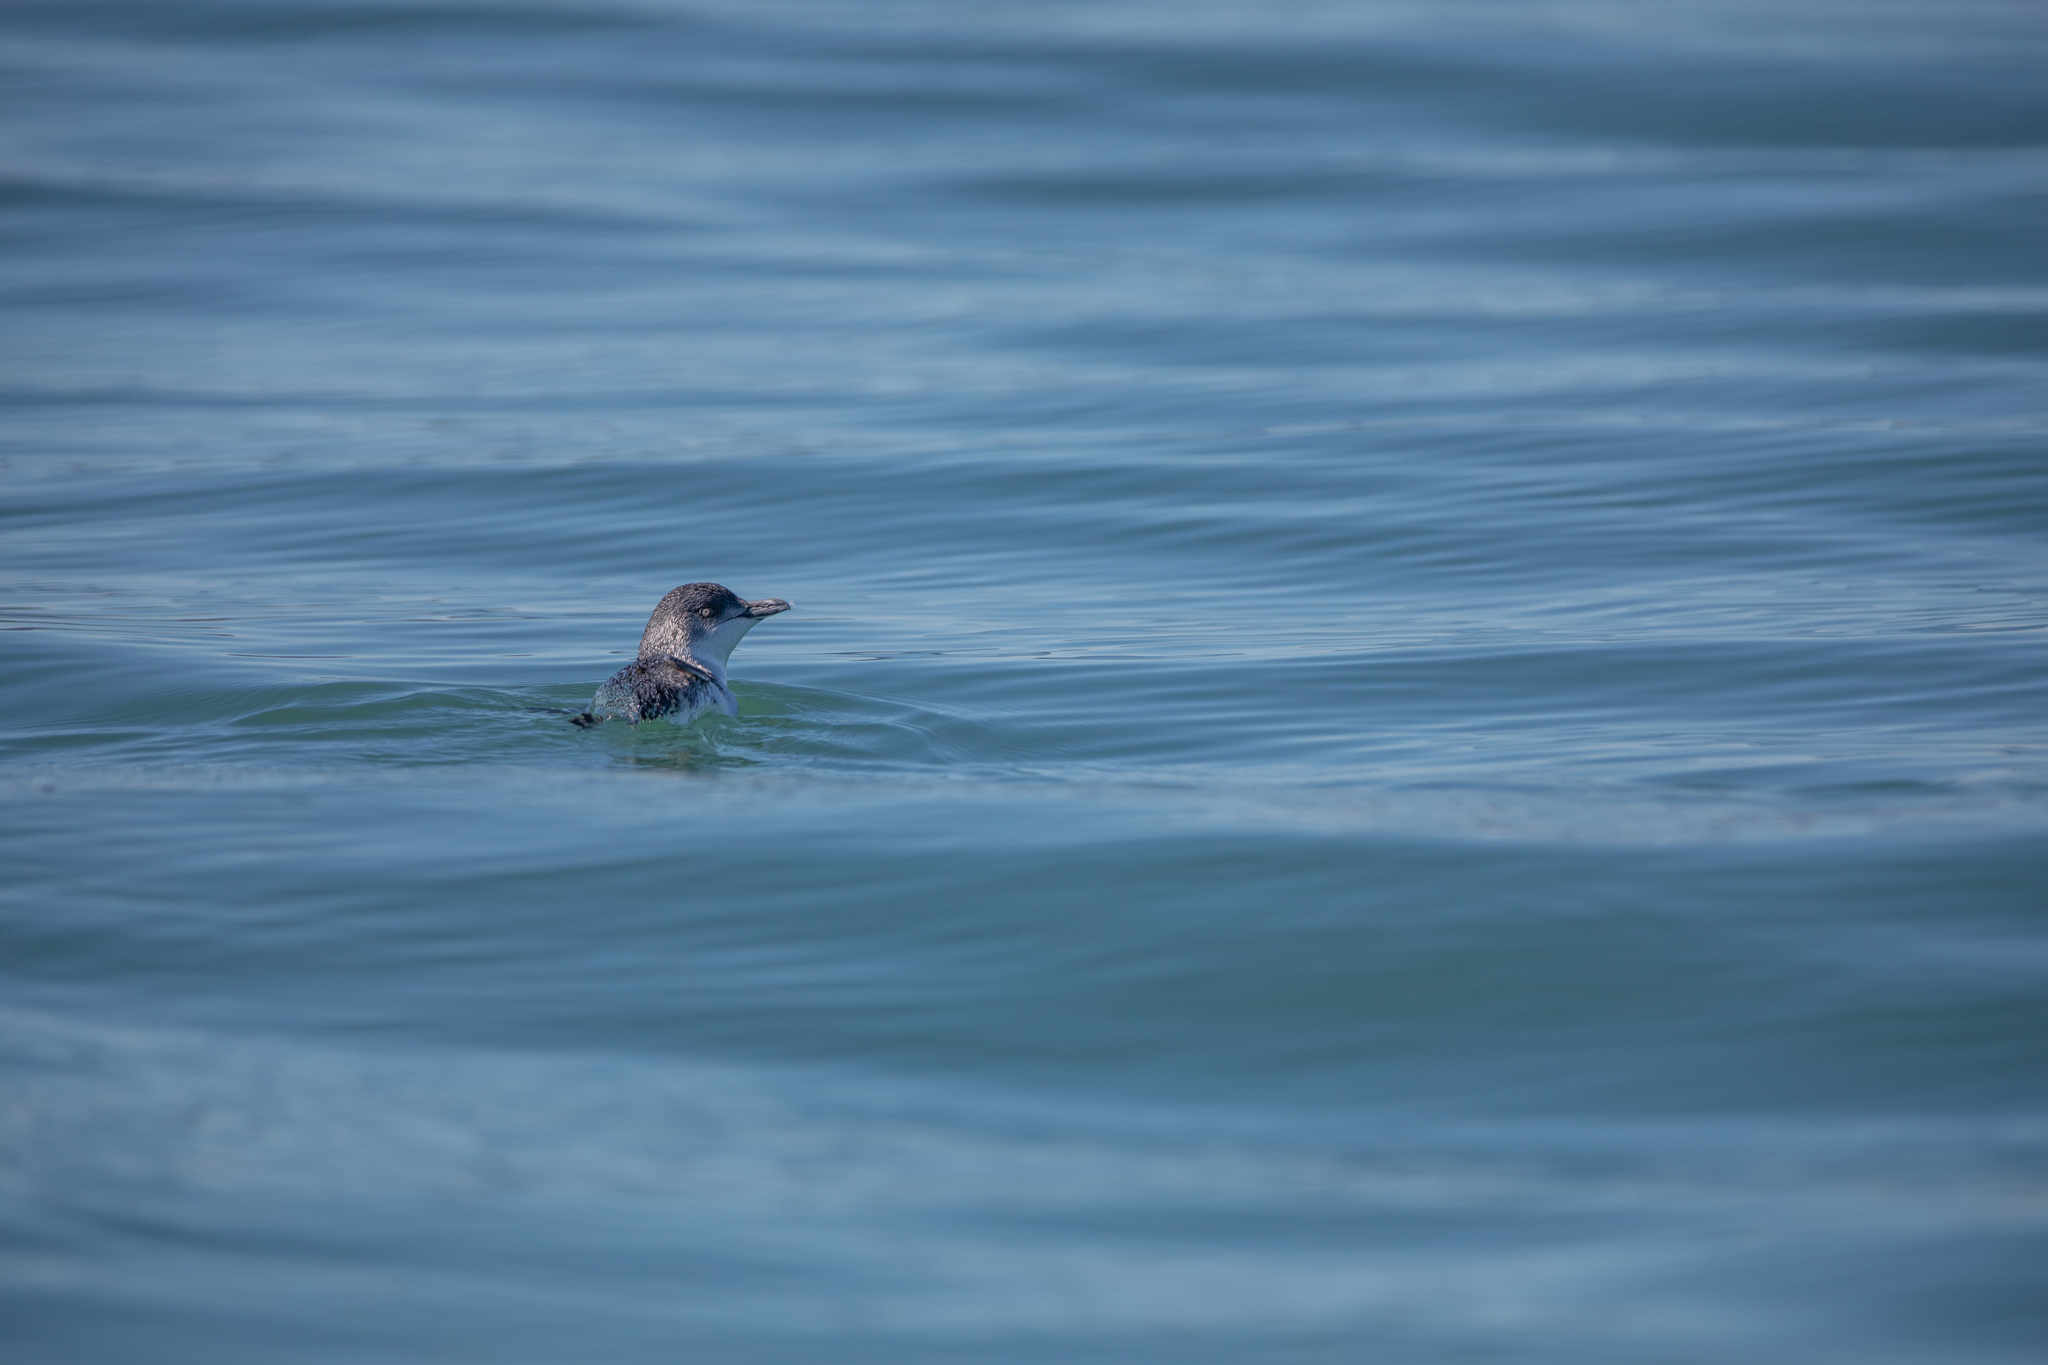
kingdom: Animalia
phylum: Chordata
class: Aves
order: Sphenisciformes
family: Spheniscidae
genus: Eudyptula
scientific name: Eudyptula minor
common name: Little penguin
